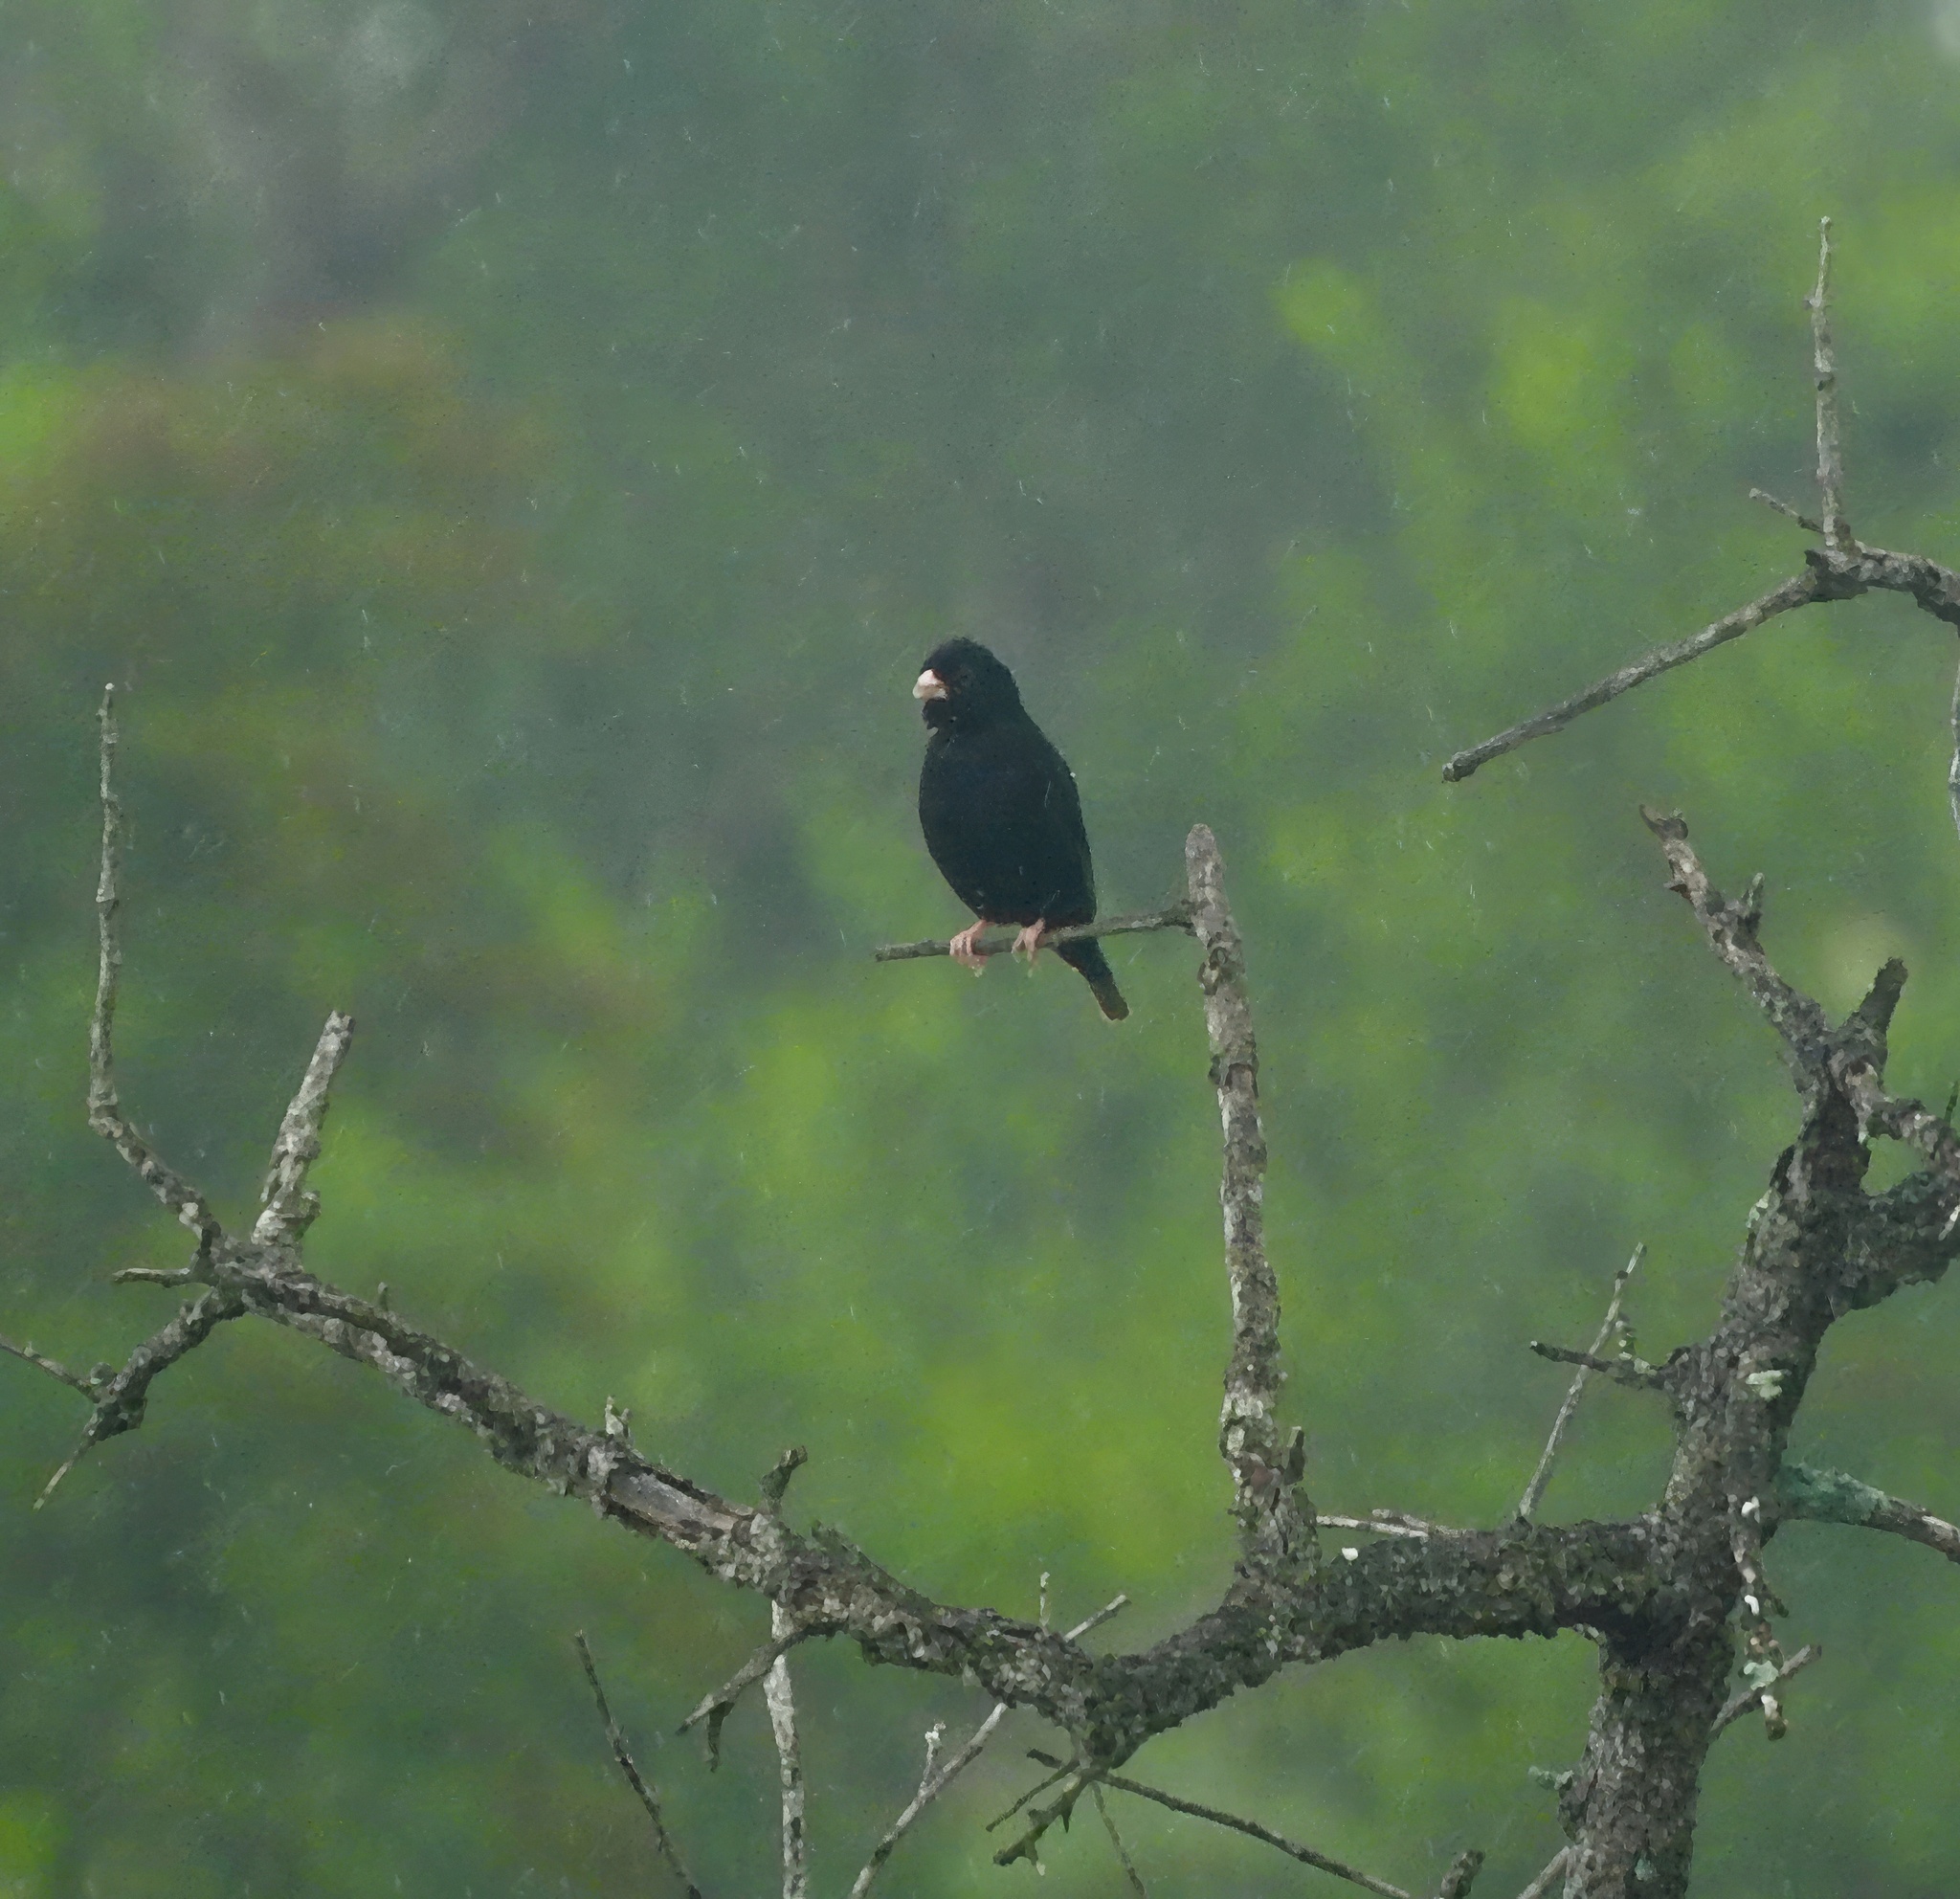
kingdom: Animalia
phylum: Chordata
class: Aves
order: Passeriformes
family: Viduidae
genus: Vidua
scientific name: Vidua funerea
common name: Dusky indigobird
